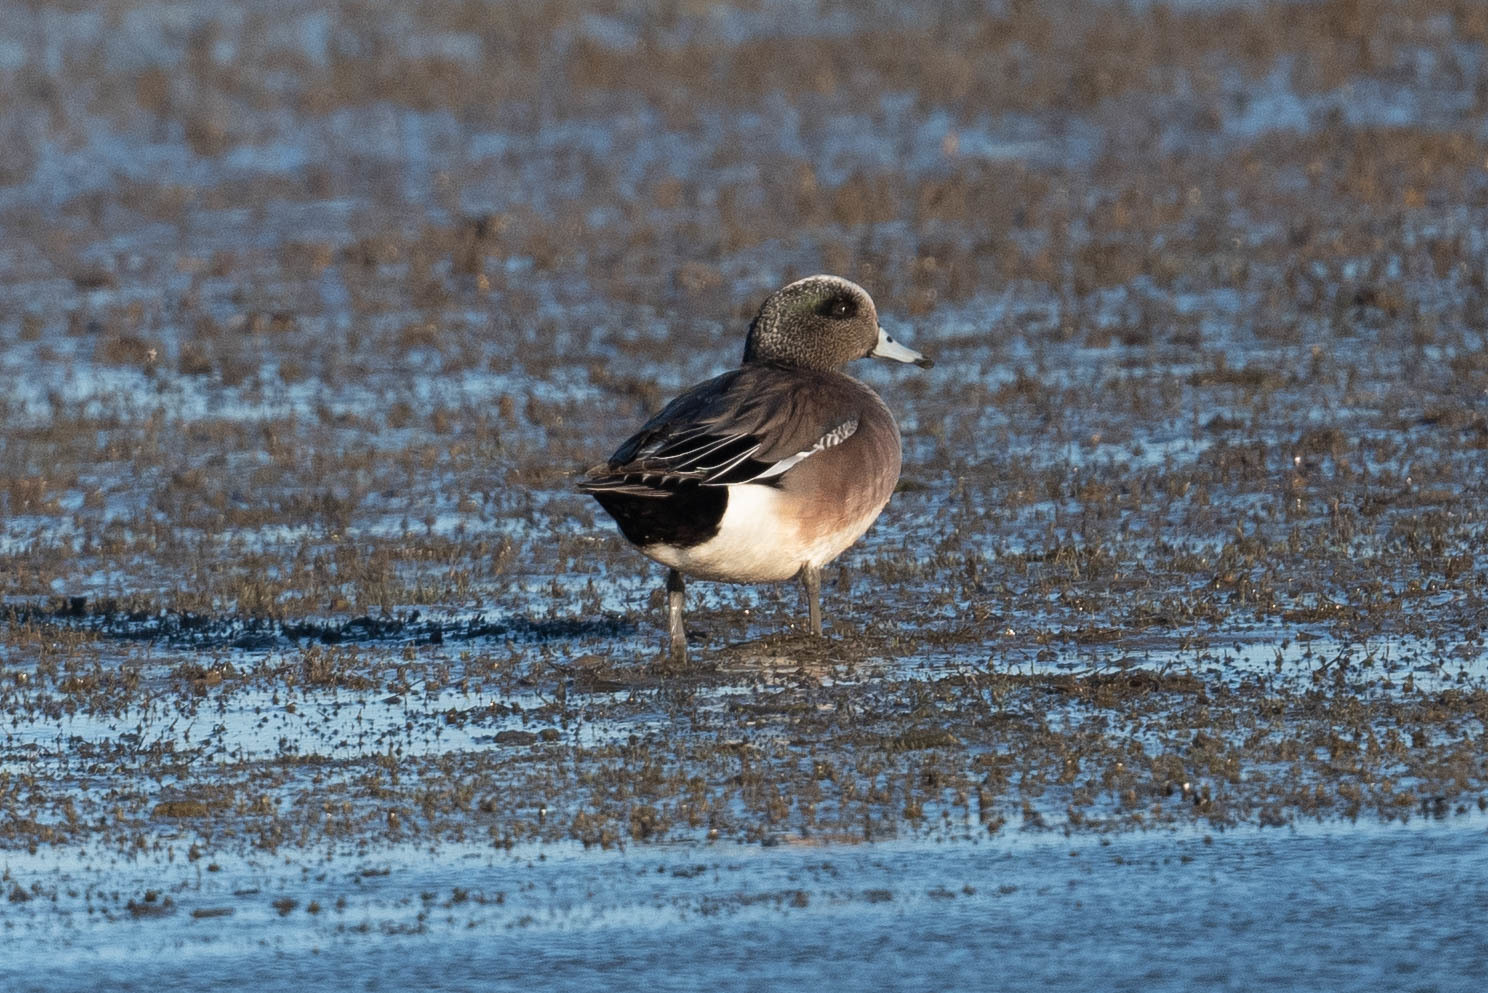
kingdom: Animalia
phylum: Chordata
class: Aves
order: Anseriformes
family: Anatidae
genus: Mareca
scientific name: Mareca americana
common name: American wigeon
